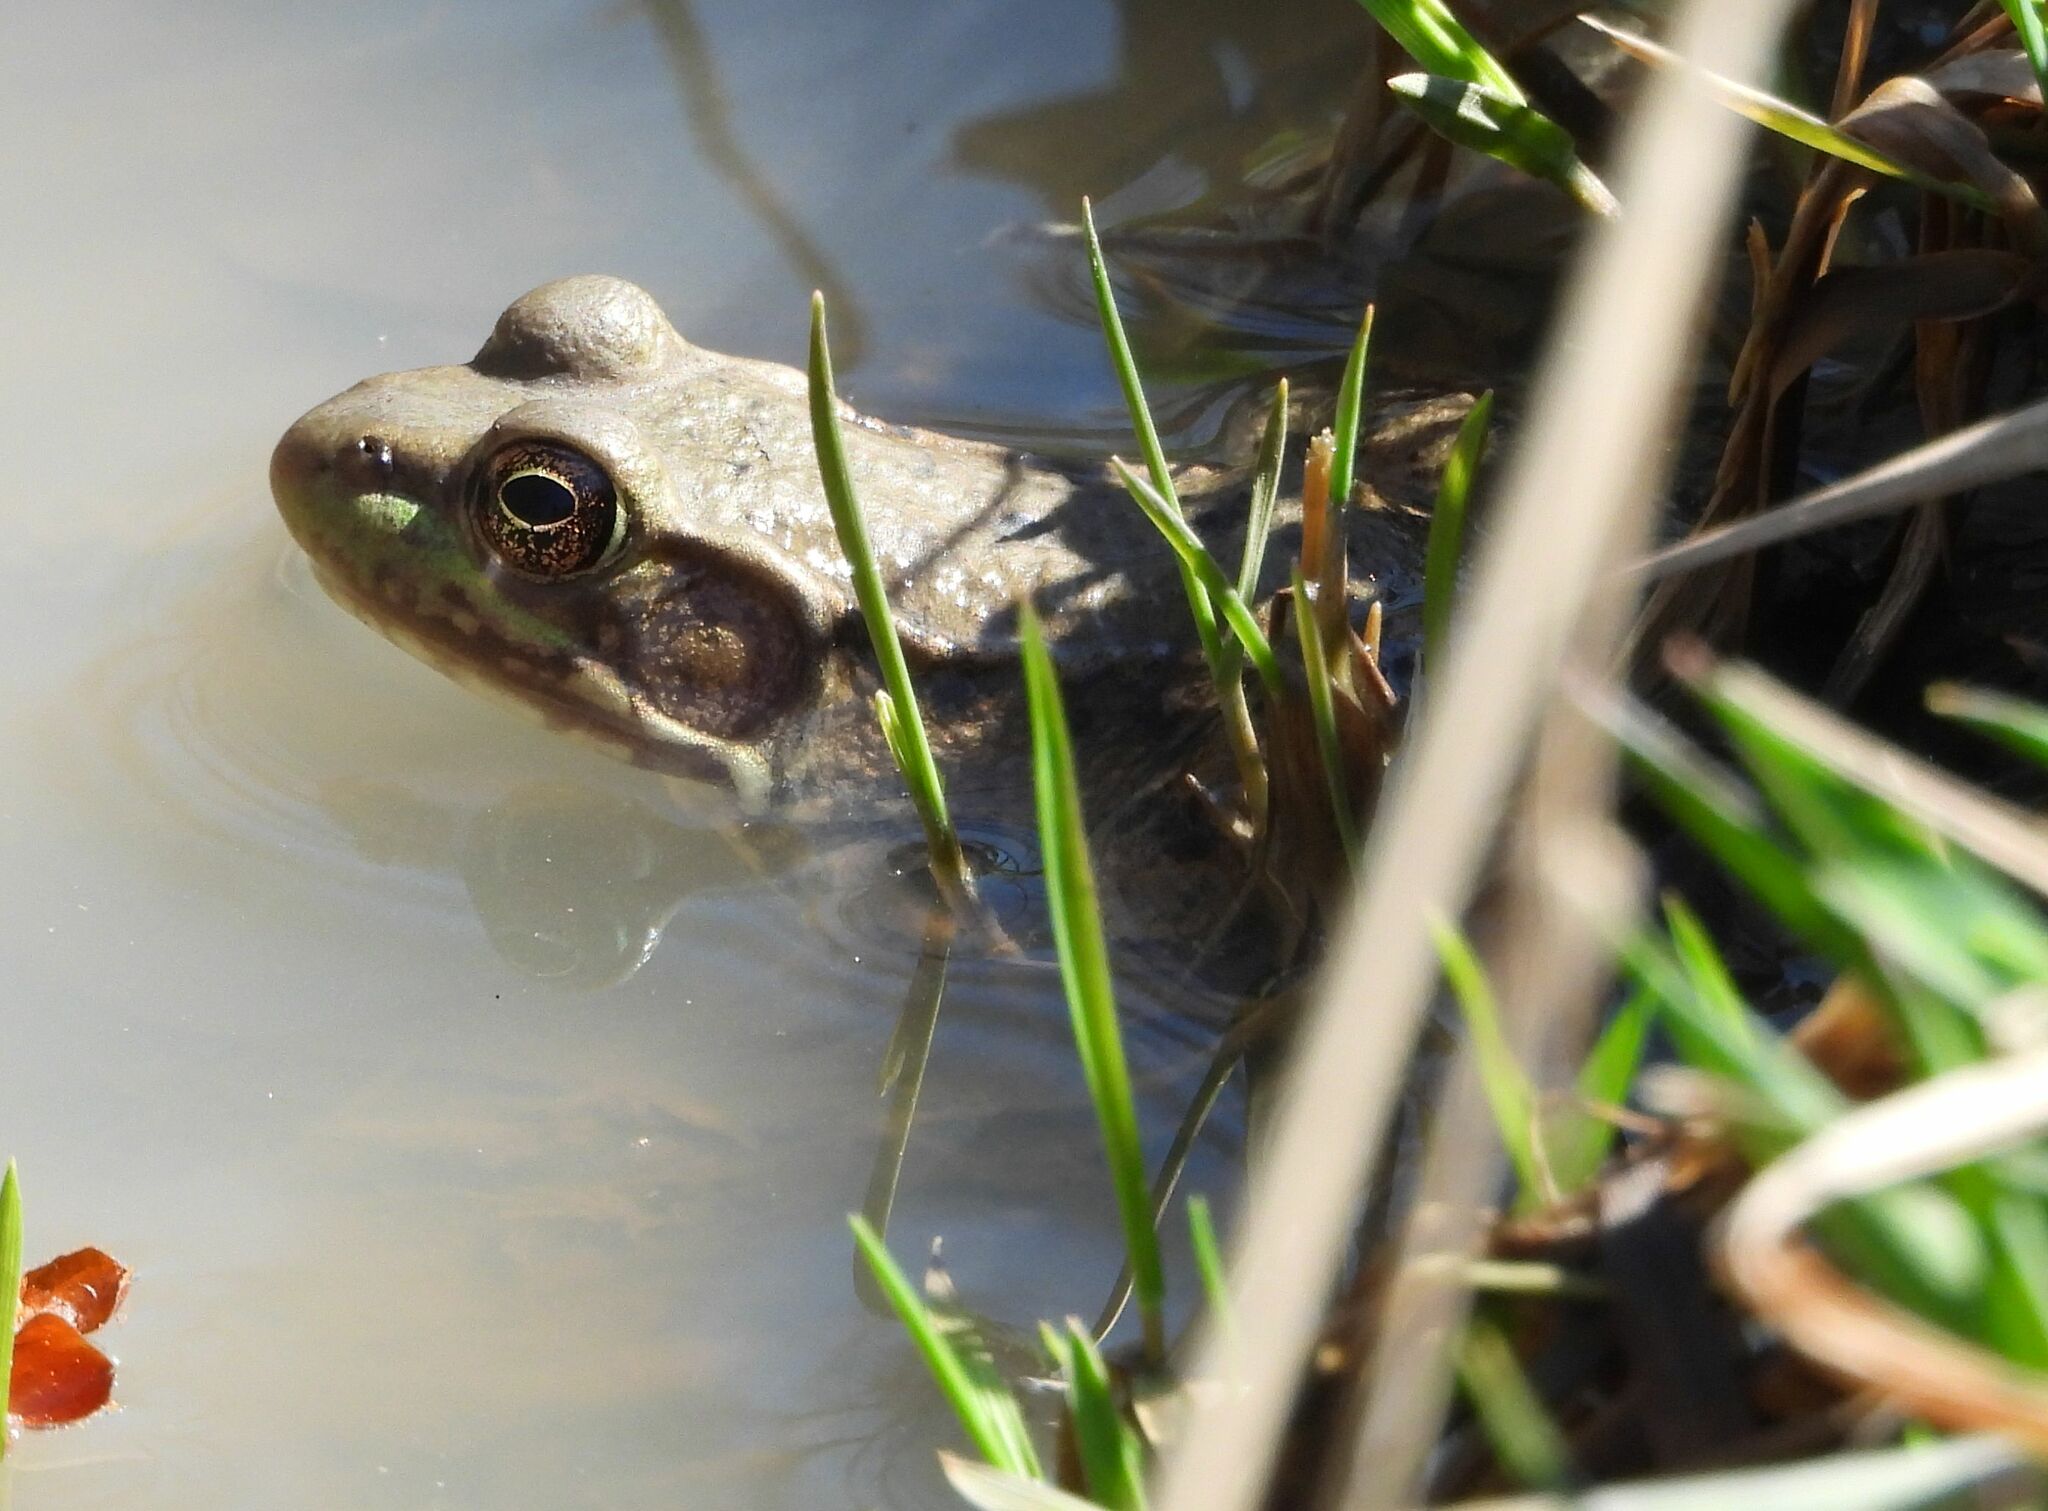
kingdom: Animalia
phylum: Chordata
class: Amphibia
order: Anura
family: Ranidae
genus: Lithobates
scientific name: Lithobates clamitans
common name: Green frog
